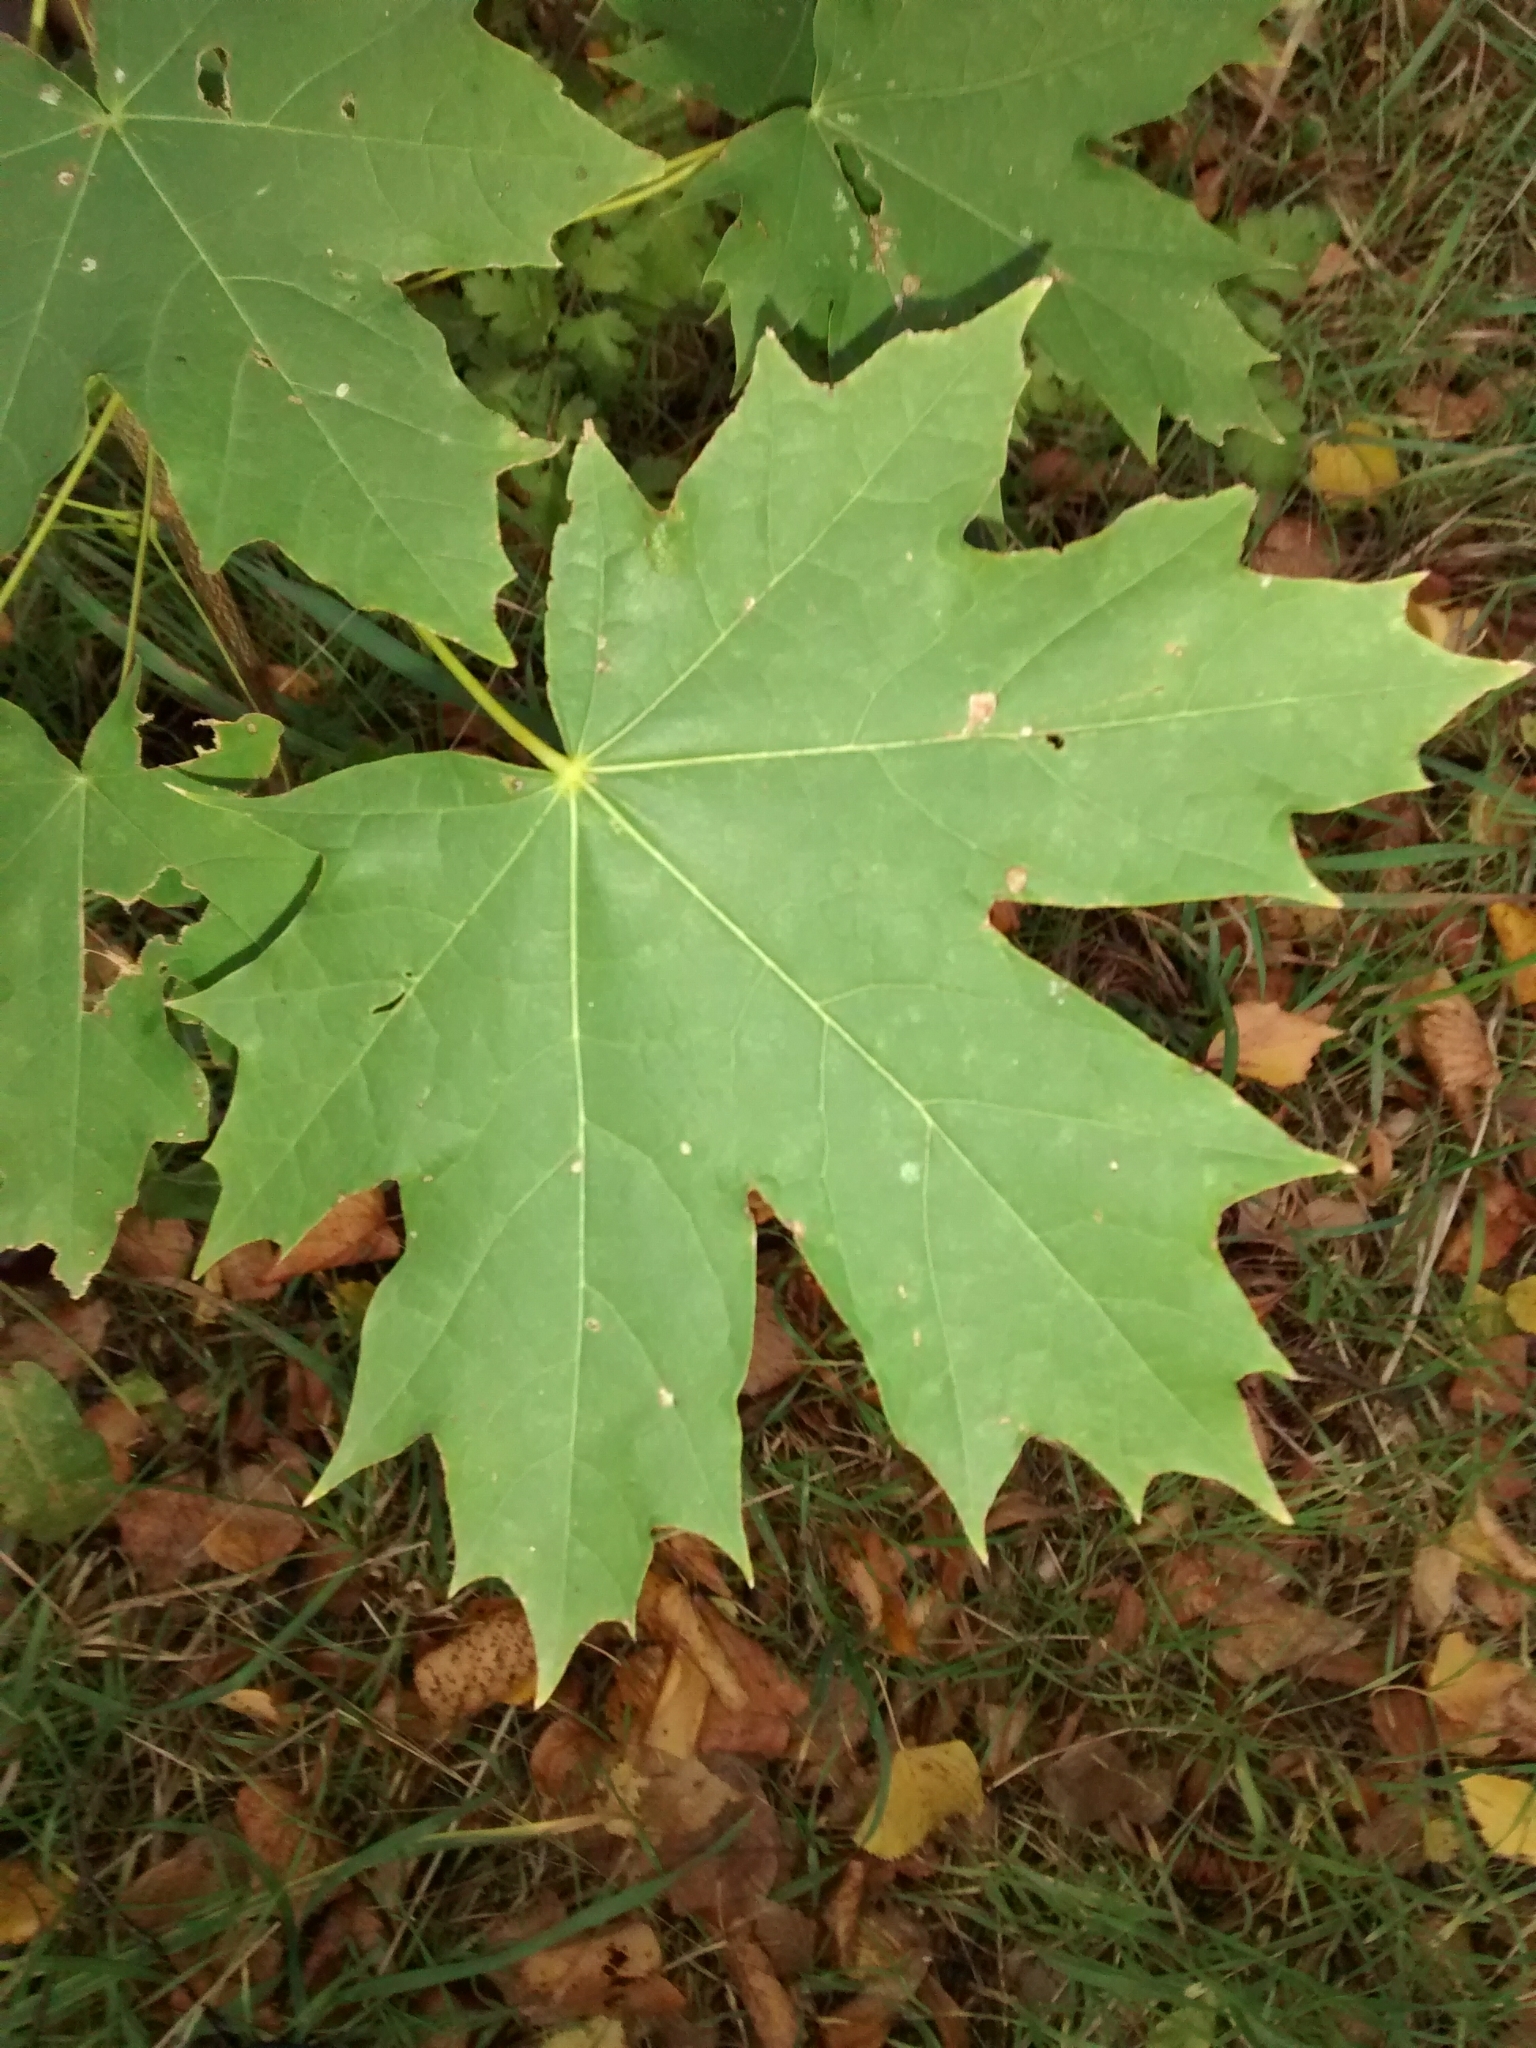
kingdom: Plantae
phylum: Tracheophyta
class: Magnoliopsida
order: Sapindales
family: Sapindaceae
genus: Acer
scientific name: Acer platanoides
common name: Norway maple
